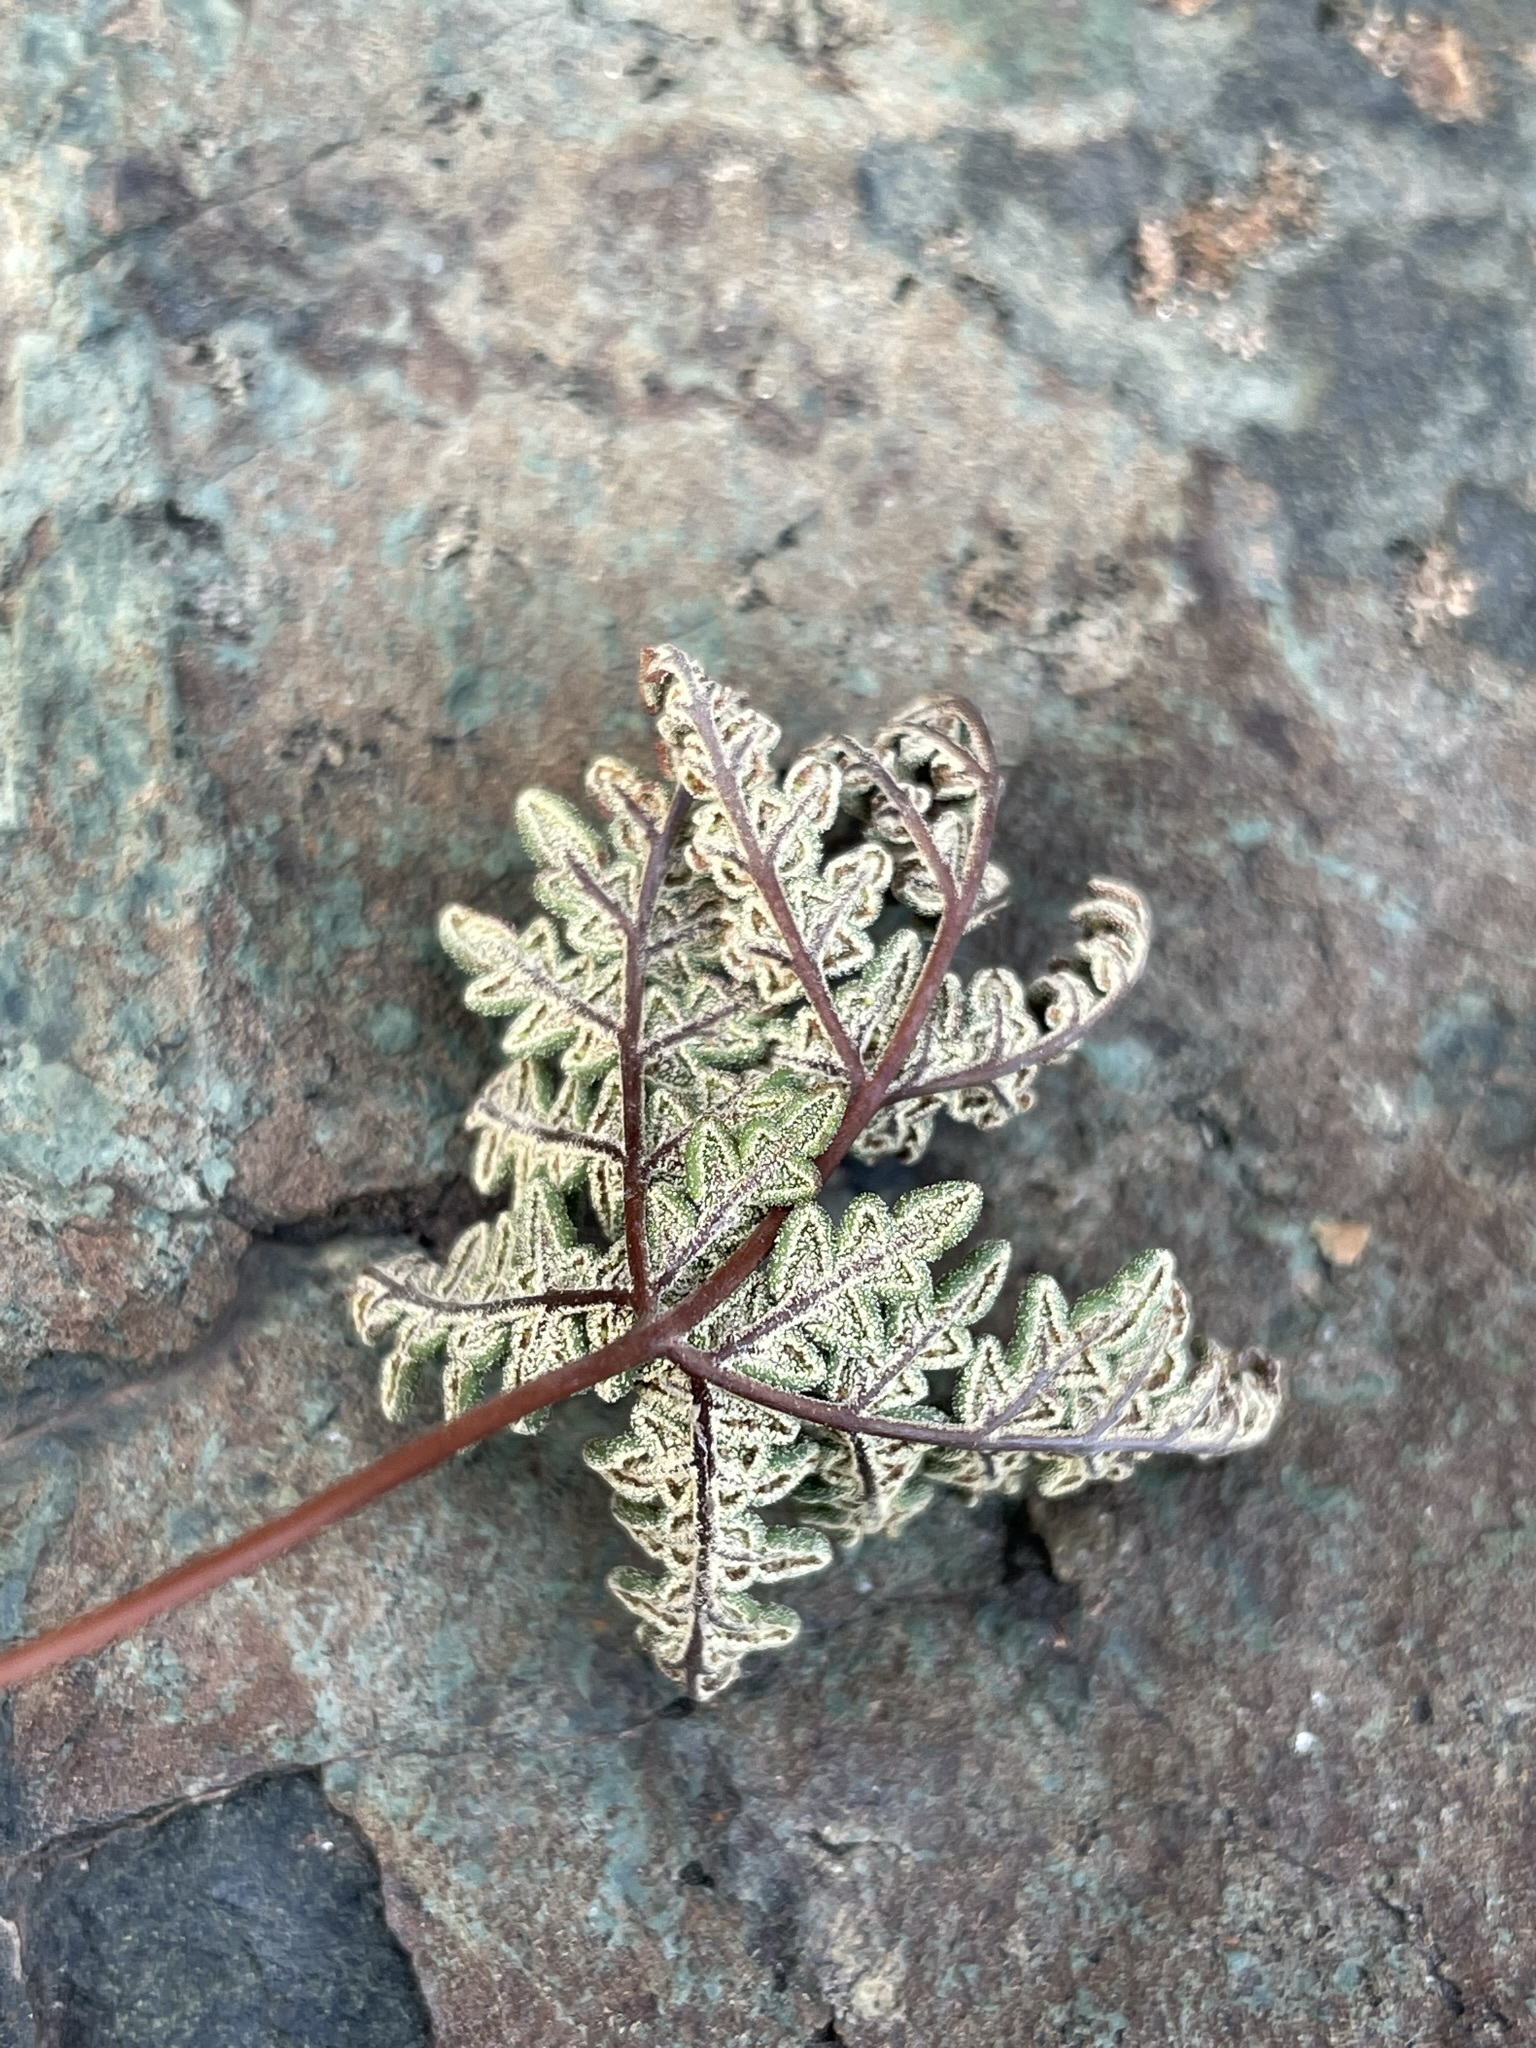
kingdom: Plantae
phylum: Tracheophyta
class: Polypodiopsida
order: Polypodiales
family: Pteridaceae
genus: Notholaena
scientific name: Notholaena californica
